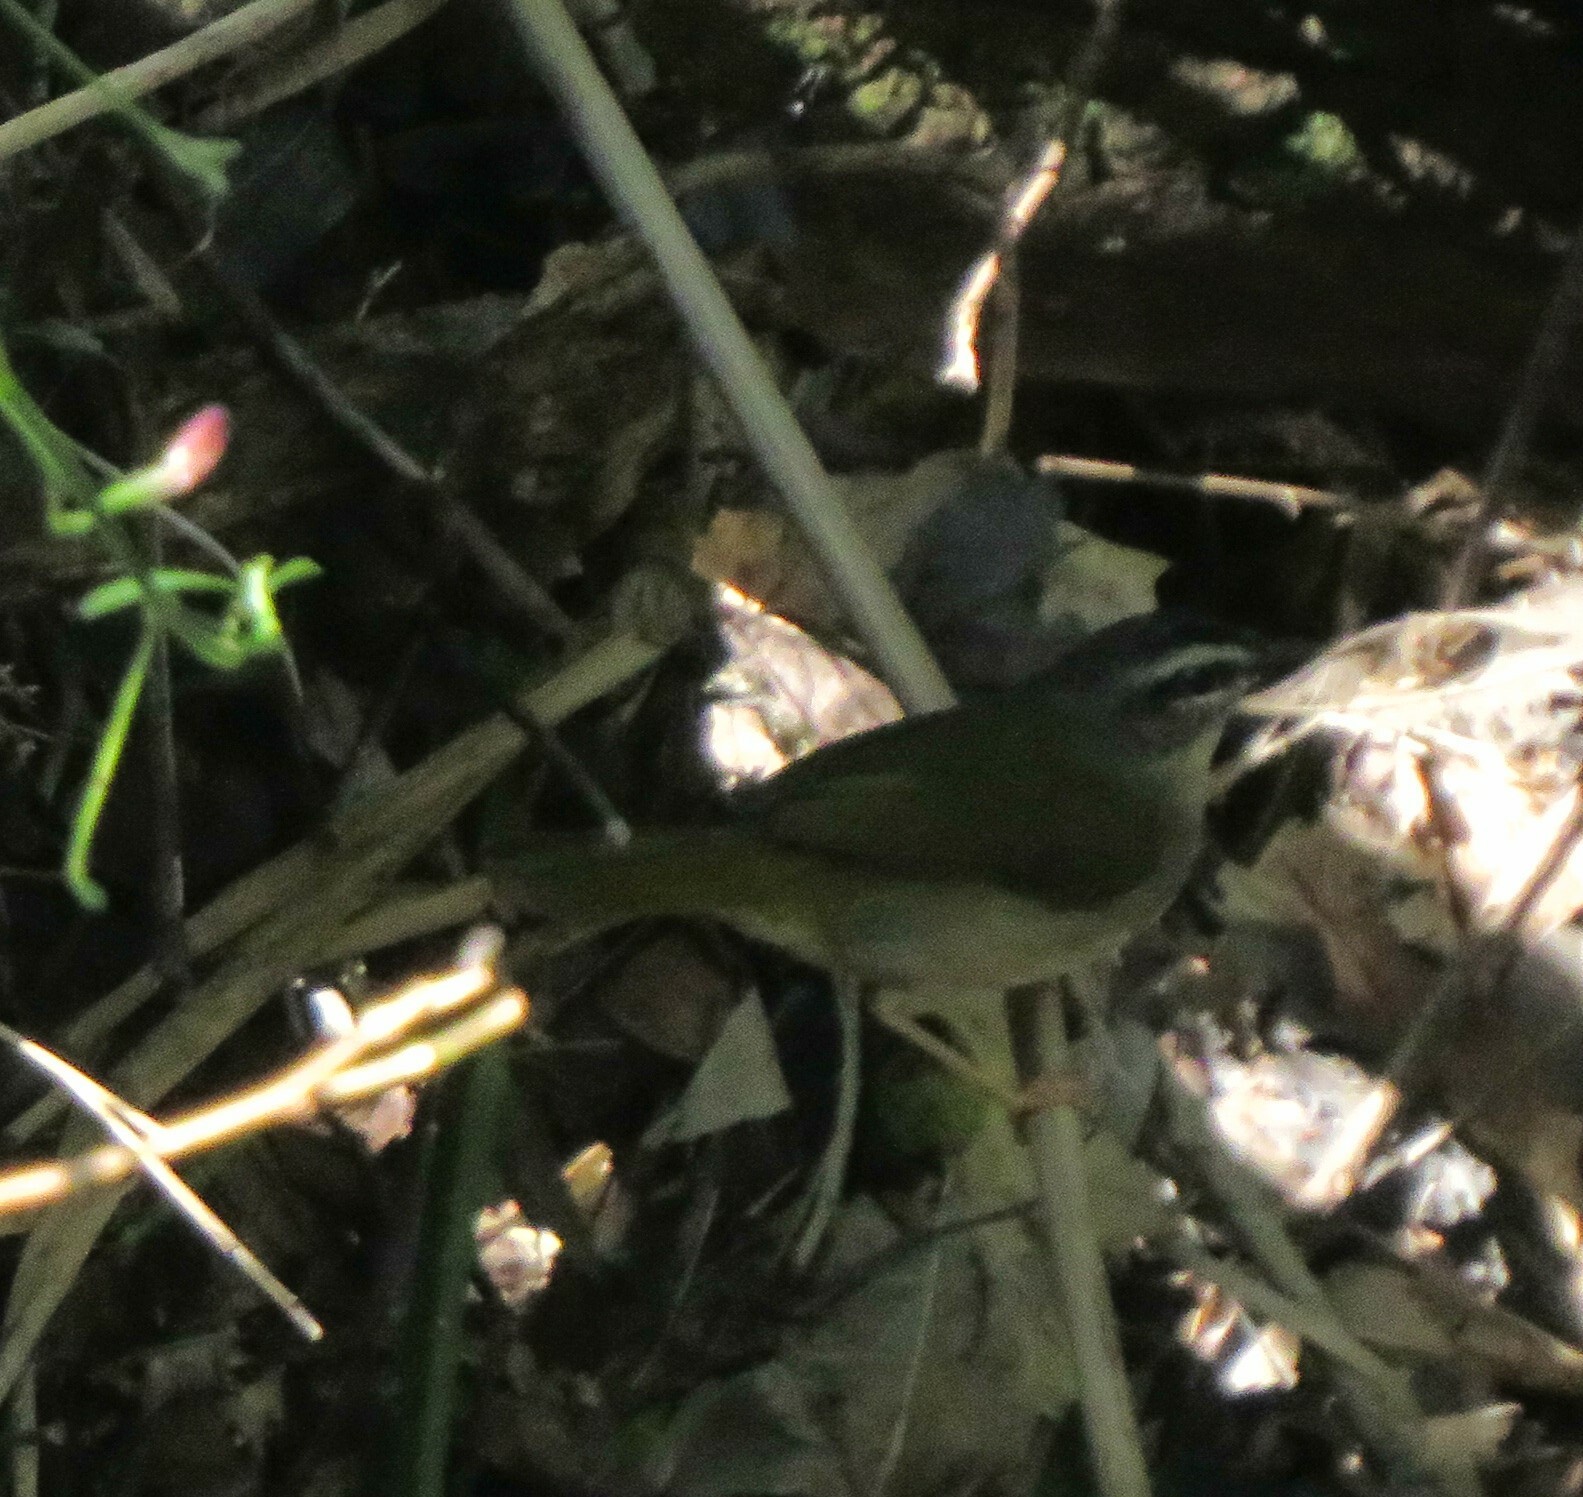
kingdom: Animalia
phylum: Chordata
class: Aves
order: Passeriformes
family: Parulidae
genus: Myiothlypis
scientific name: Myiothlypis rivularis
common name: Riverbank warbler
